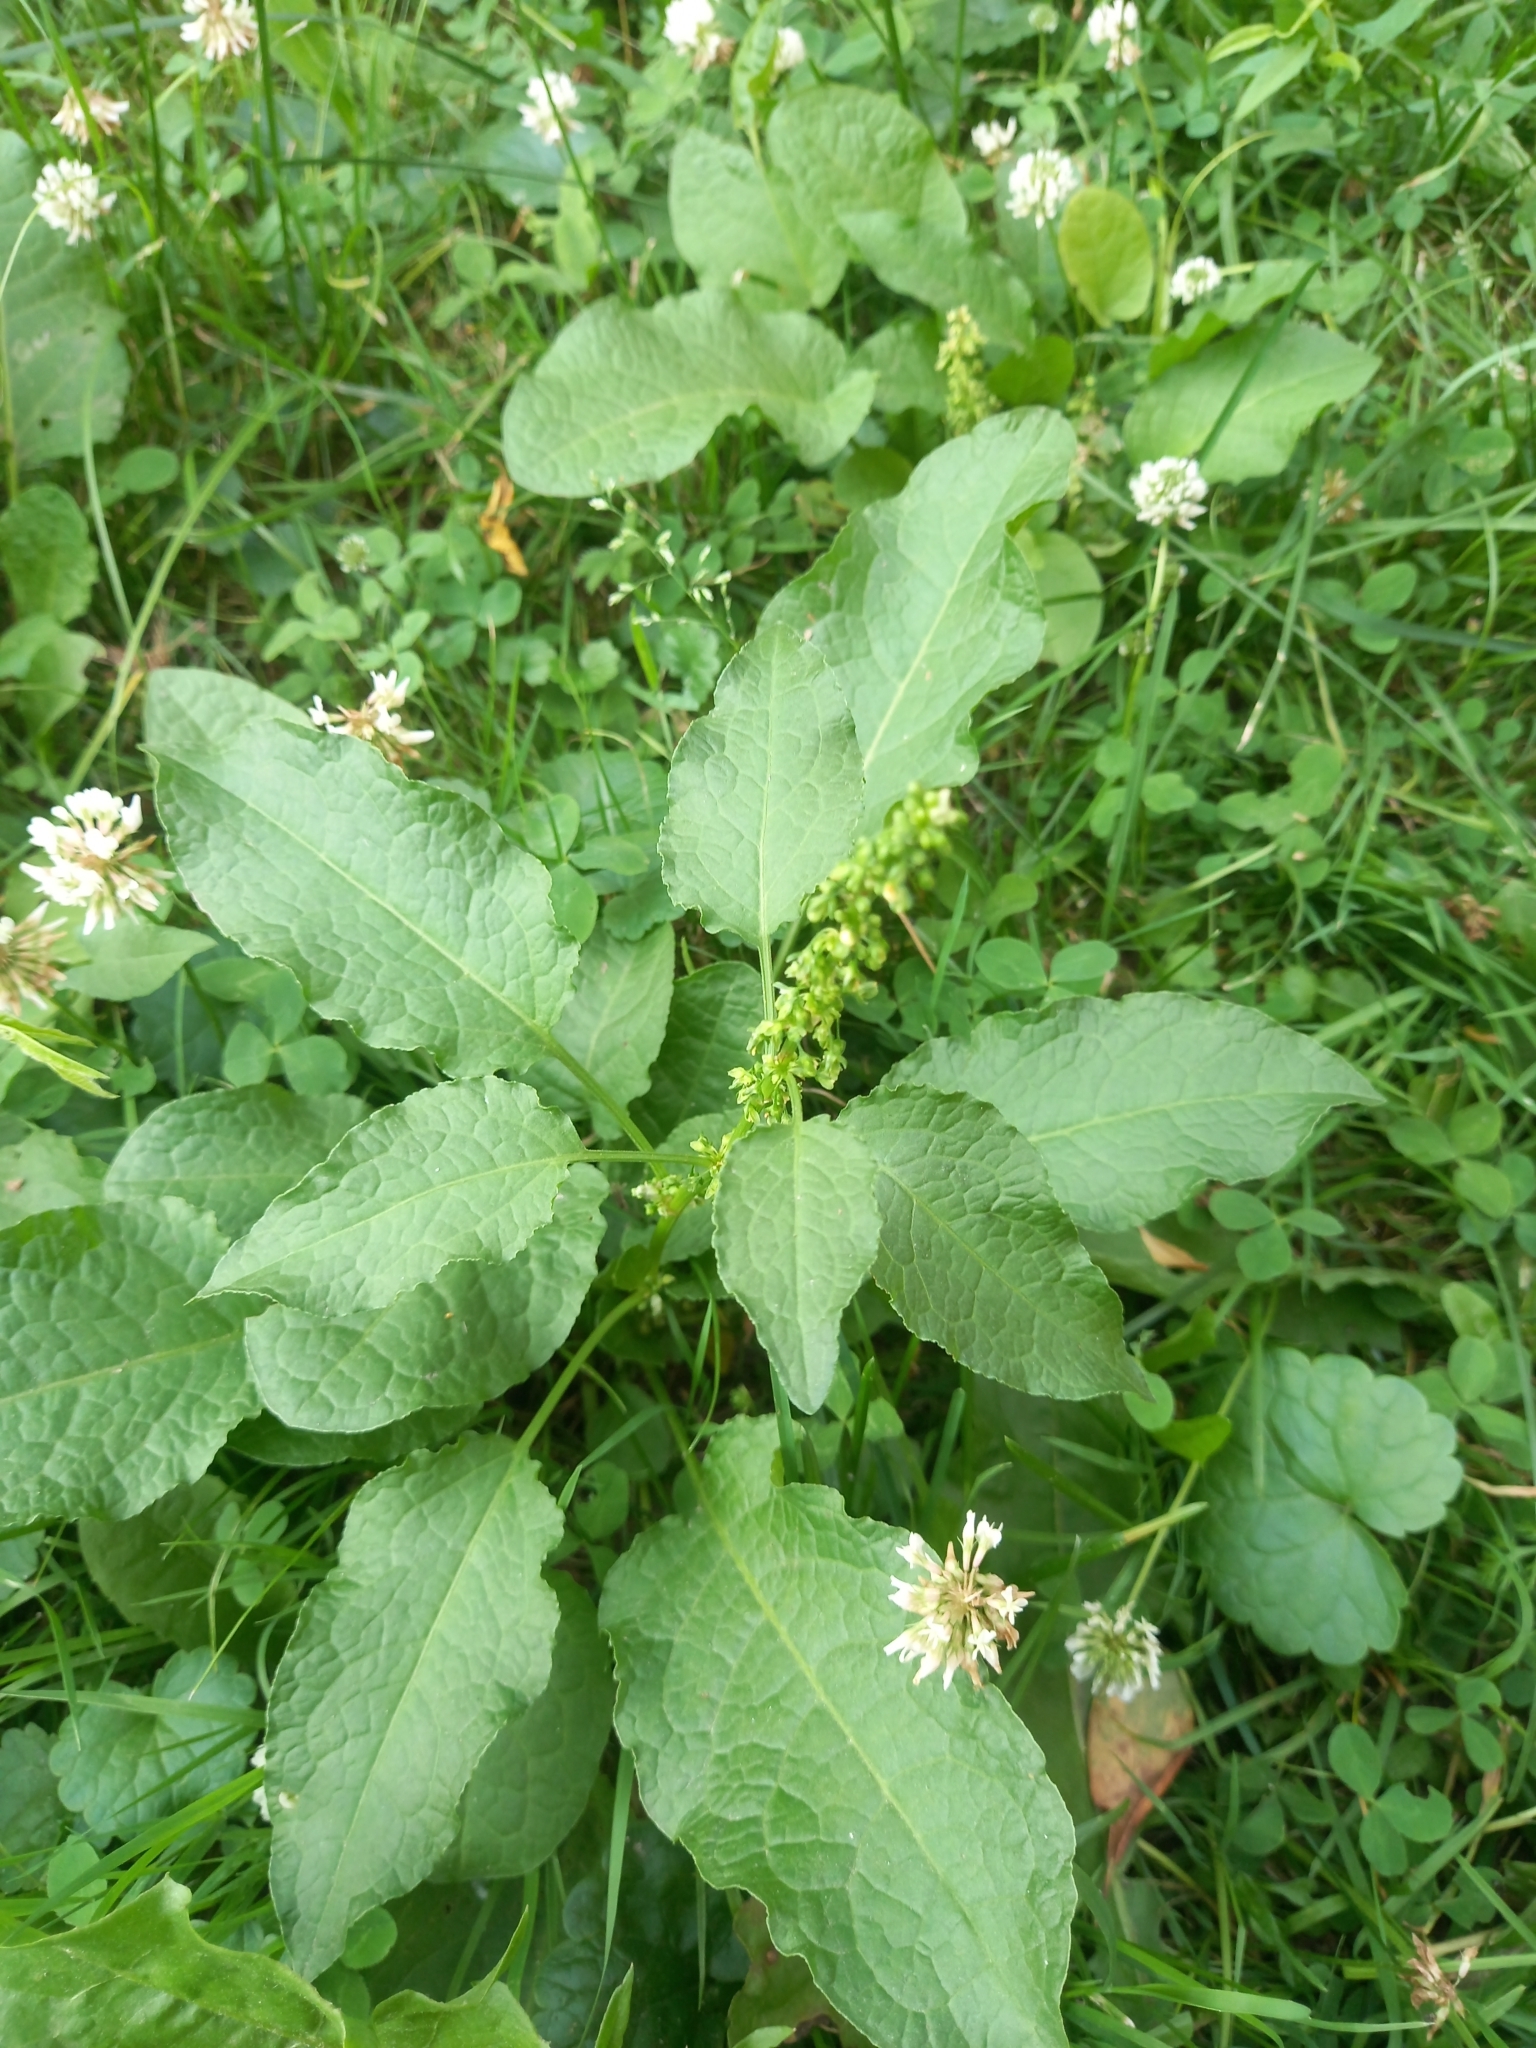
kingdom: Plantae
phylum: Tracheophyta
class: Magnoliopsida
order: Caryophyllales
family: Polygonaceae
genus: Rumex
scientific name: Rumex obtusifolius
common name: Bitter dock
